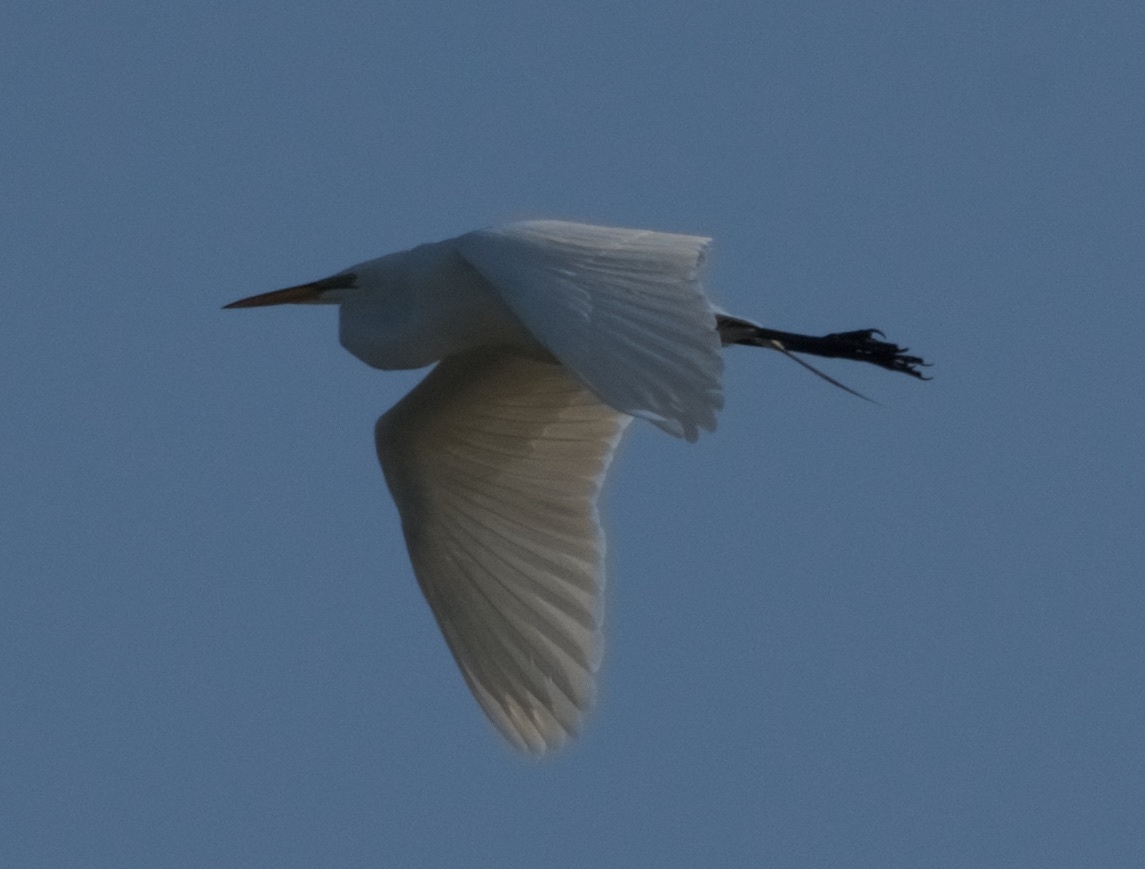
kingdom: Animalia
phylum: Chordata
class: Aves
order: Pelecaniformes
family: Ardeidae
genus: Ardea
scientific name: Ardea alba
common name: Great egret
